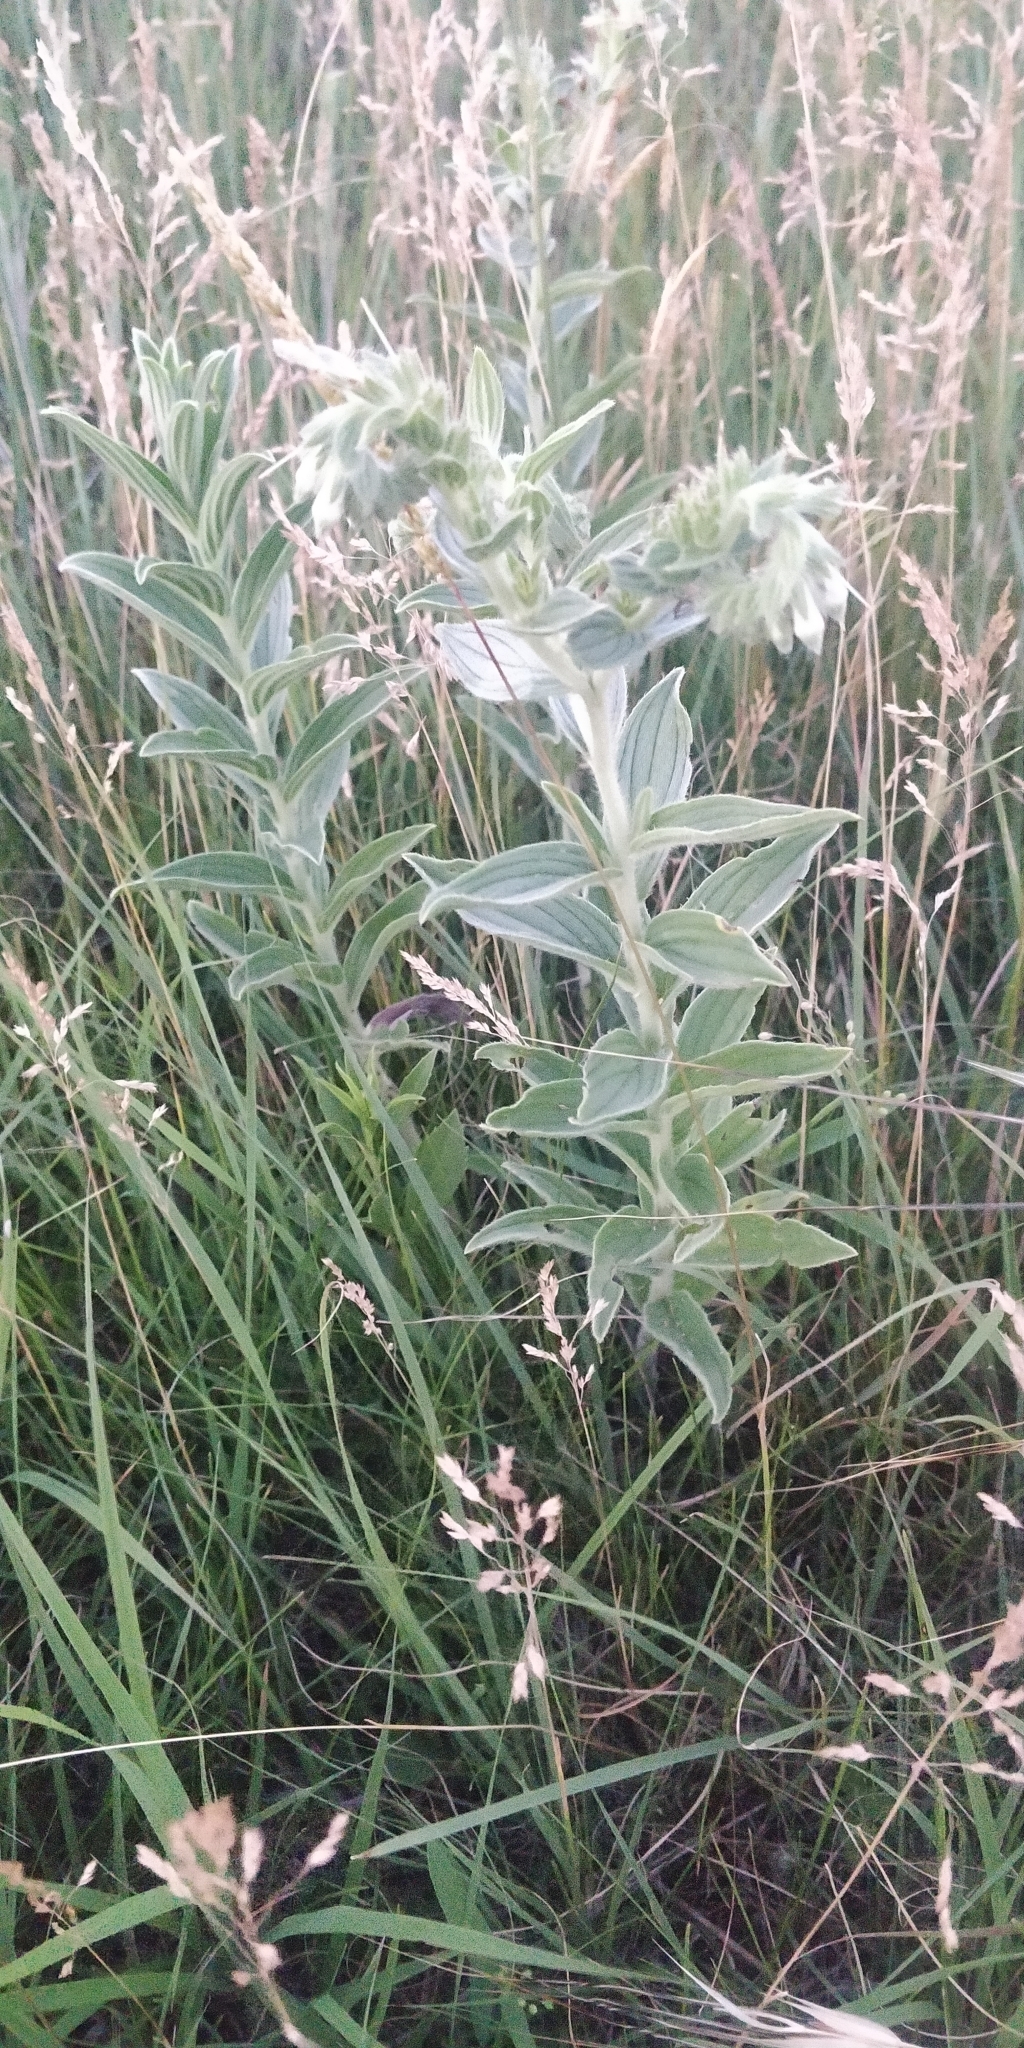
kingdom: Plantae
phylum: Tracheophyta
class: Magnoliopsida
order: Boraginales
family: Boraginaceae
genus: Lithospermum
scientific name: Lithospermum occidentale
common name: Western false gromwell
